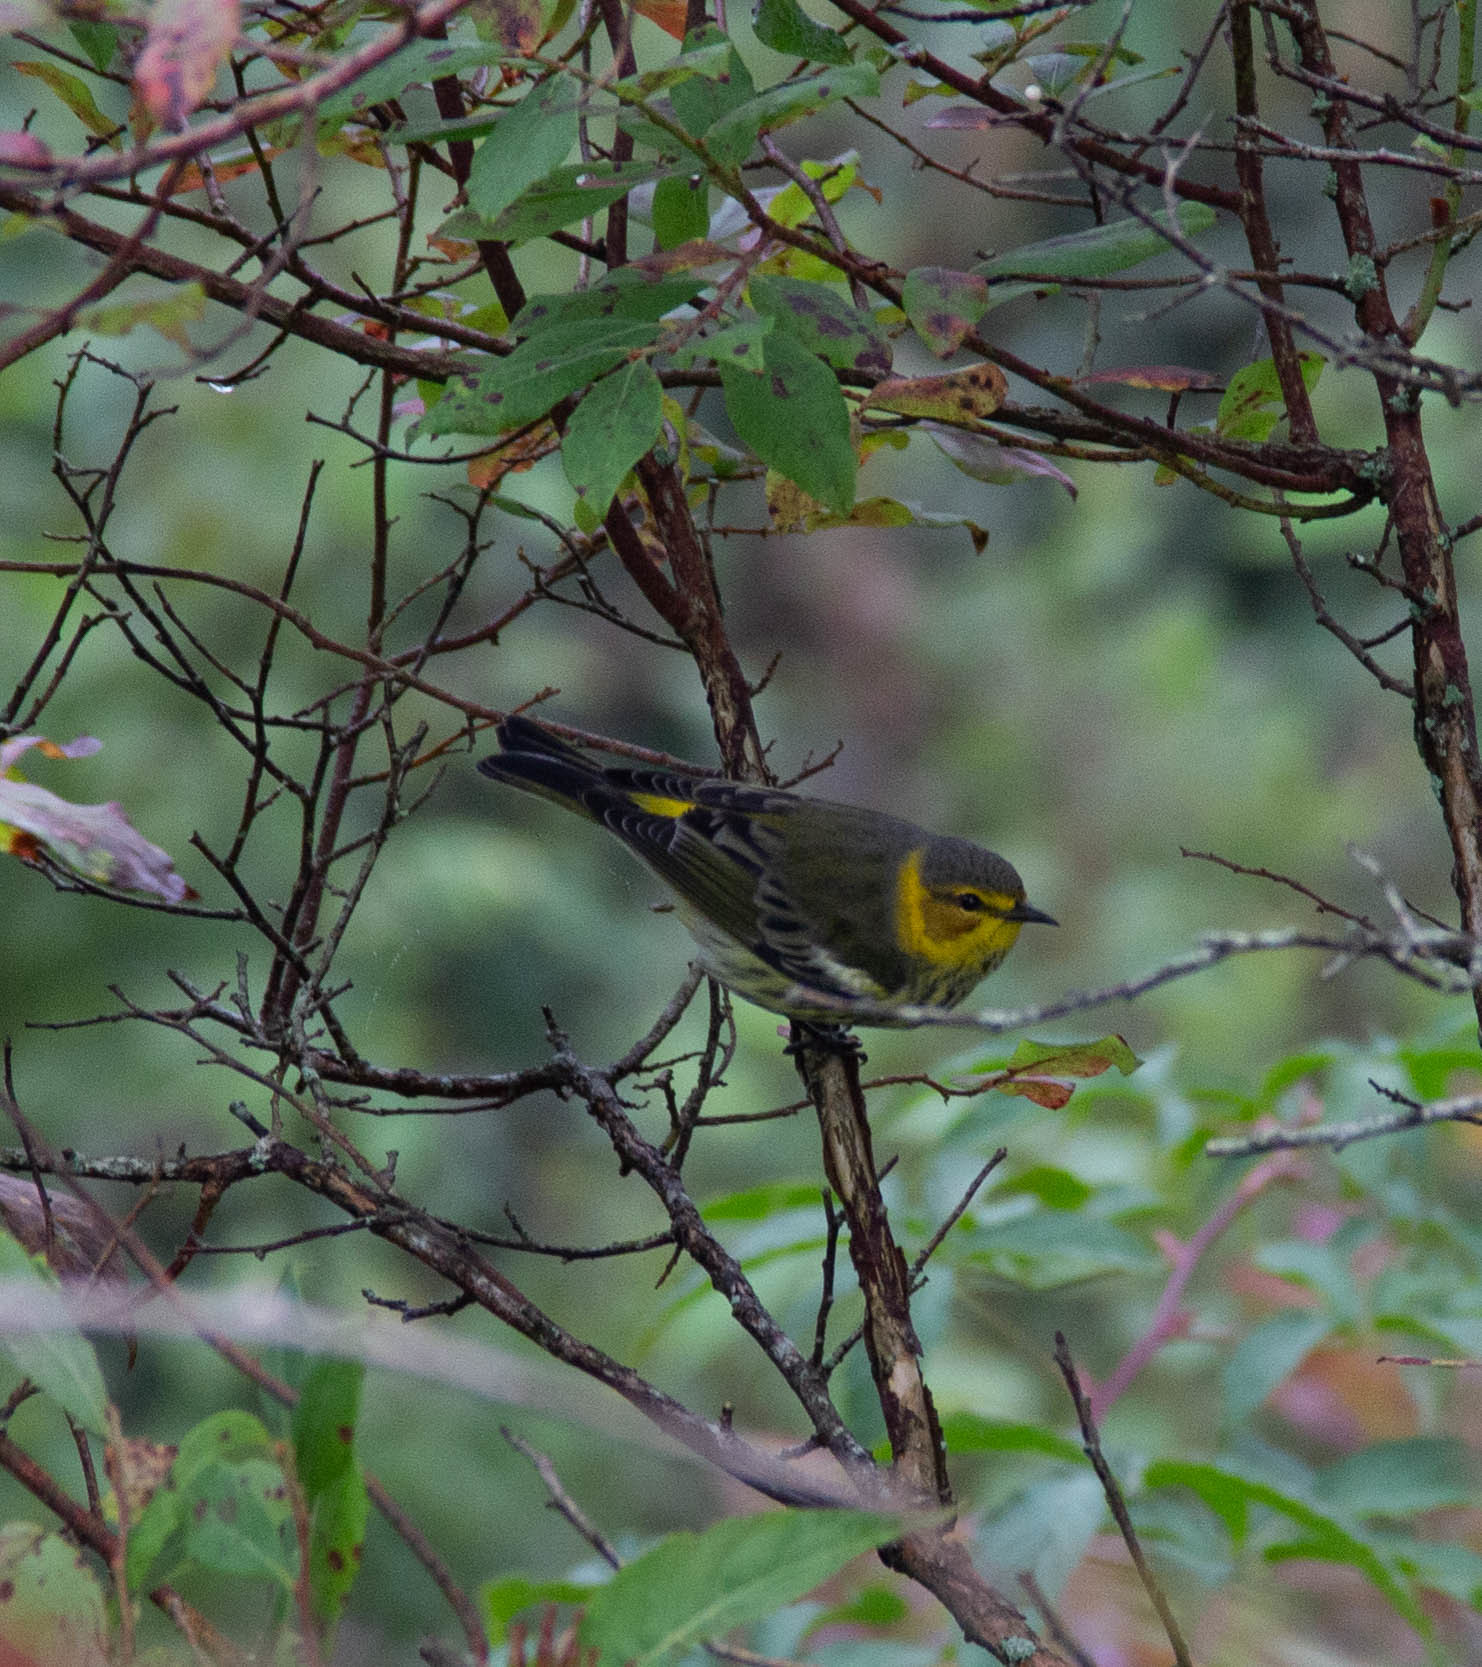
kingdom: Animalia
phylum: Chordata
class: Aves
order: Passeriformes
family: Parulidae
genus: Setophaga
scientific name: Setophaga tigrina
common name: Cape may warbler
